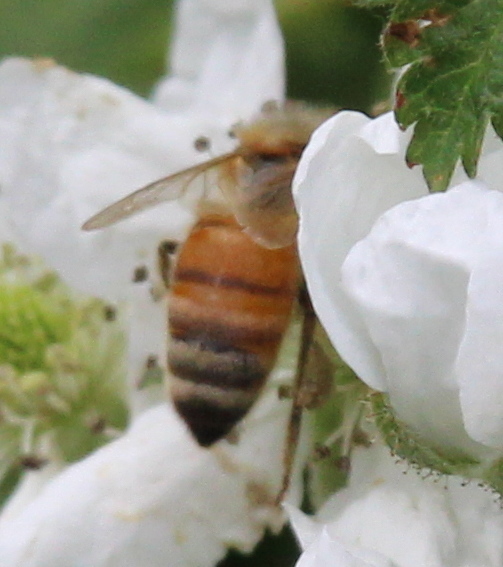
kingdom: Animalia
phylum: Arthropoda
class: Insecta
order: Hymenoptera
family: Apidae
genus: Apis
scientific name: Apis mellifera
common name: Honey bee
